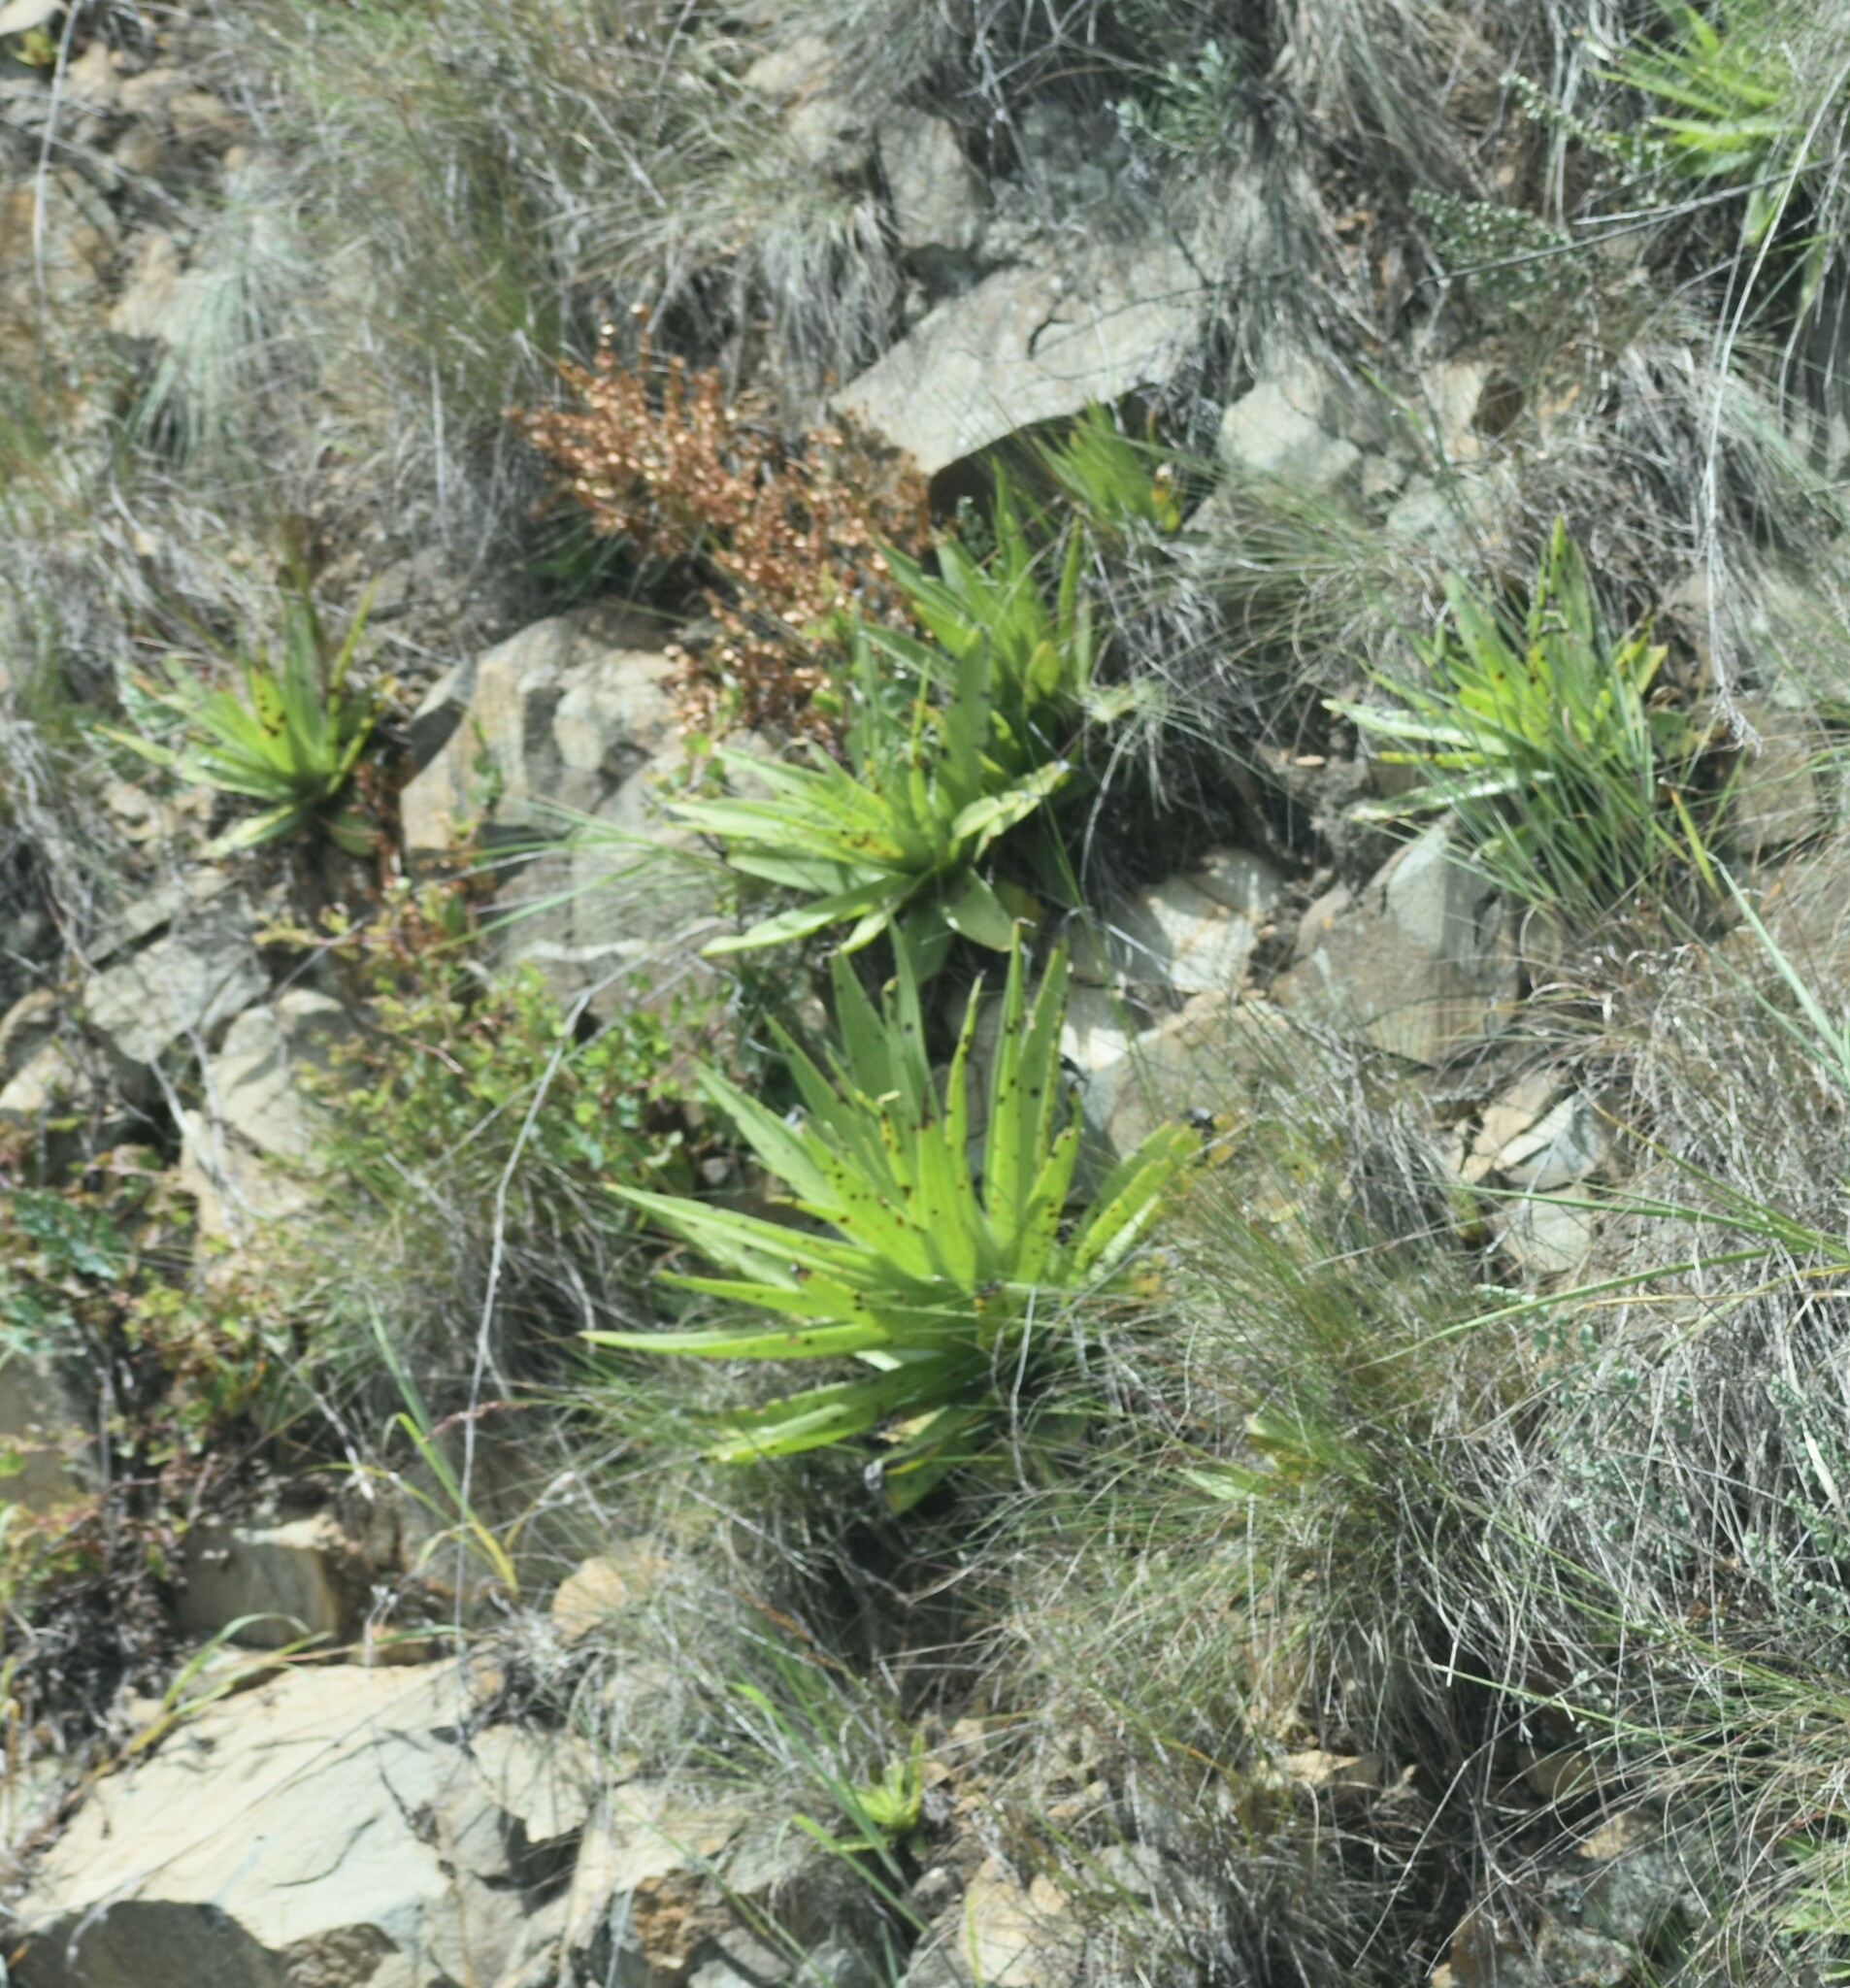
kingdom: Plantae
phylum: Tracheophyta
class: Magnoliopsida
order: Saxifragales
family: Crassulaceae
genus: Crassula
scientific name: Crassula acinaciformis
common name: Giant crassula
